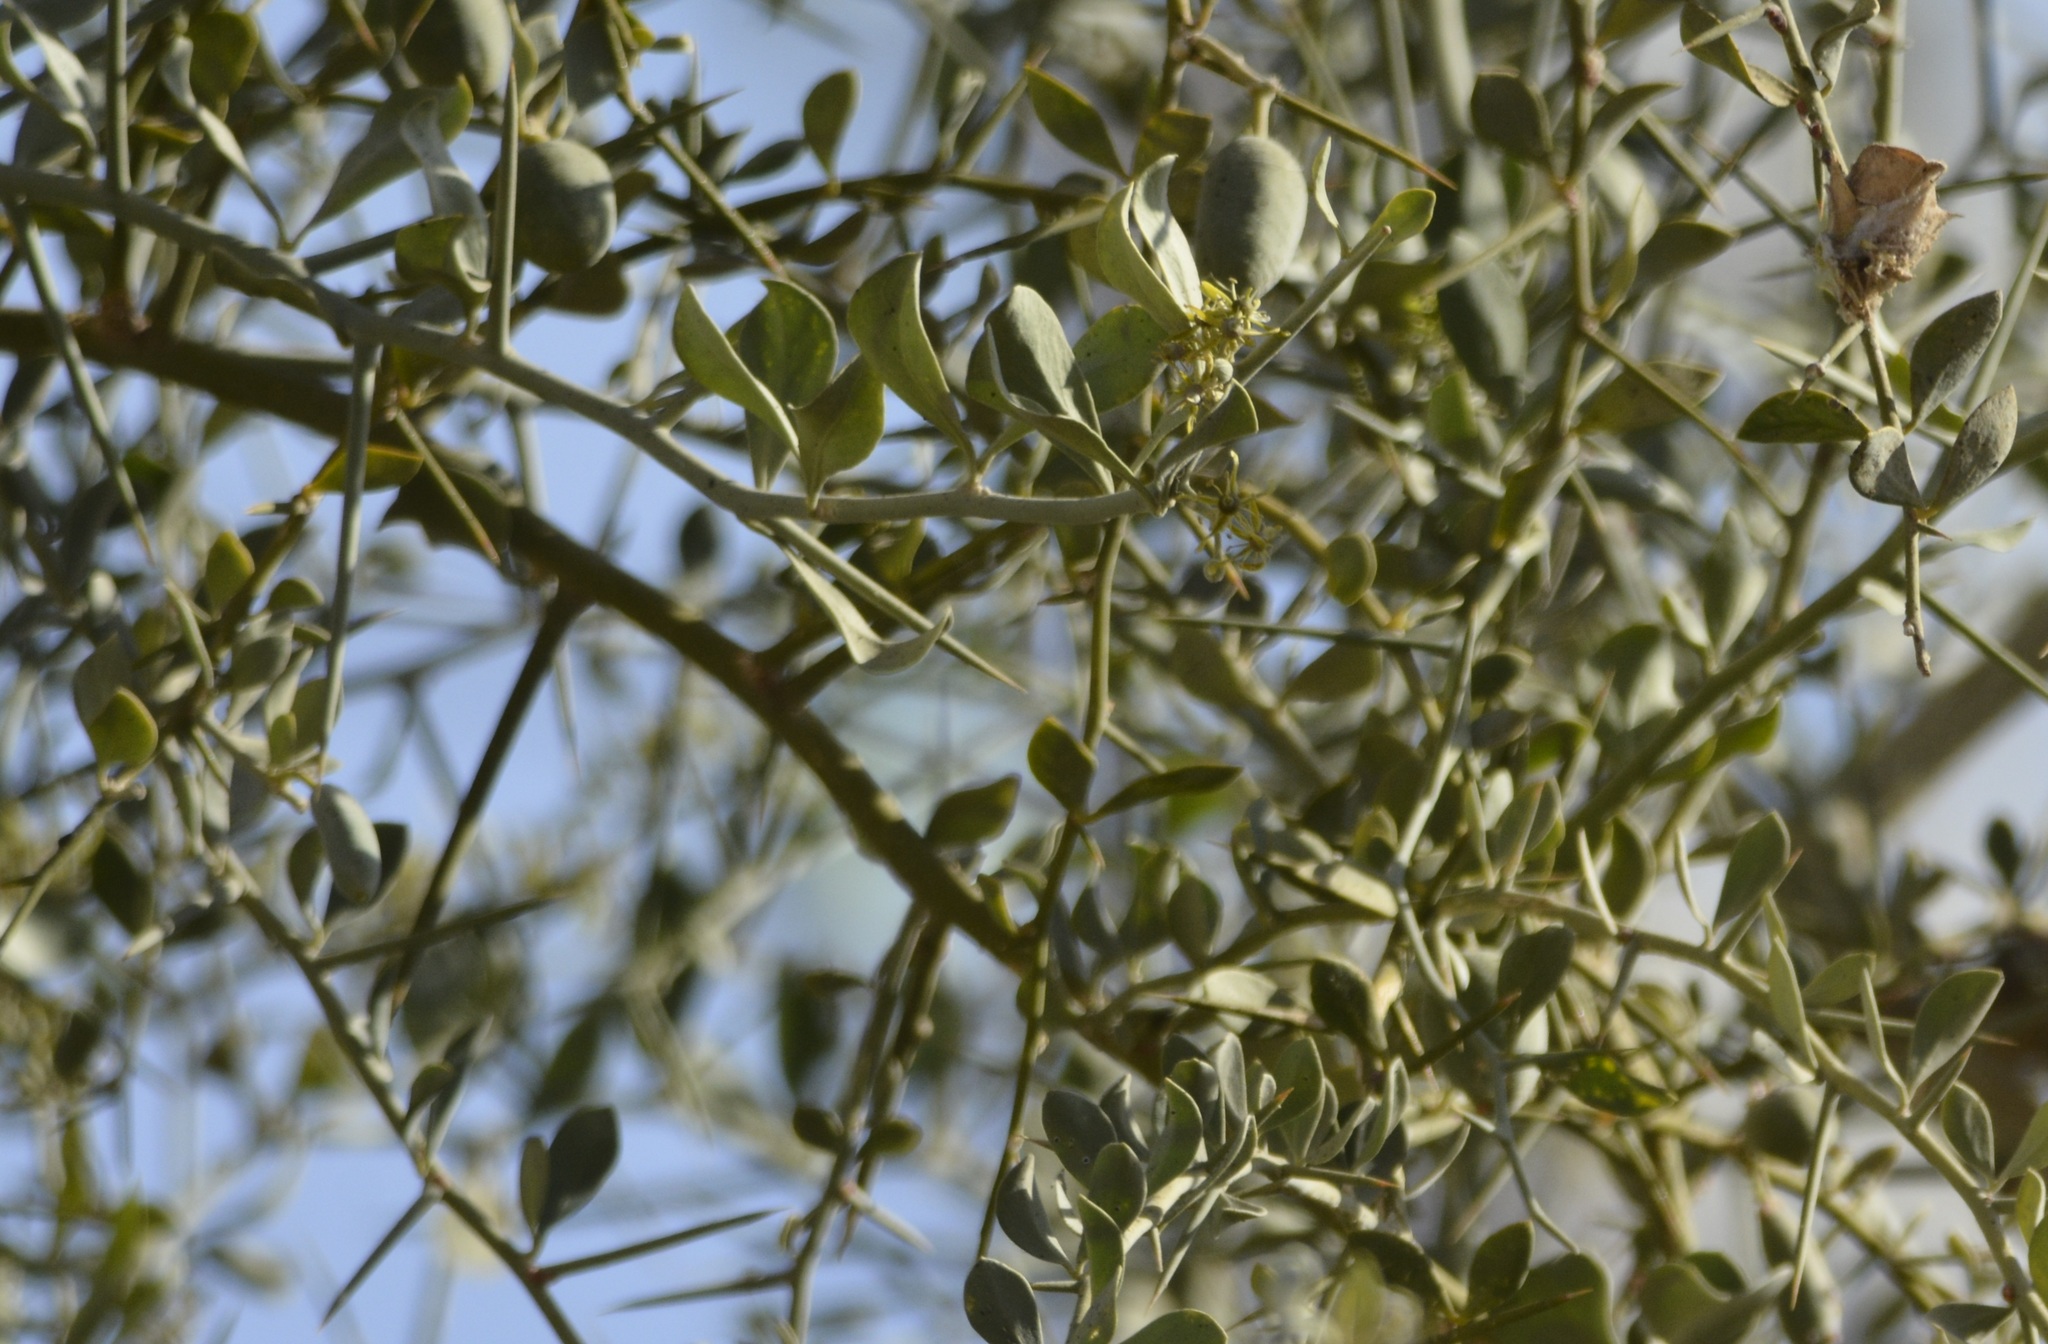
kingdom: Plantae
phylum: Tracheophyta
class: Magnoliopsida
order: Zygophyllales
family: Zygophyllaceae
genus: Balanites
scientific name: Balanites aegyptiaca
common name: Balanites
